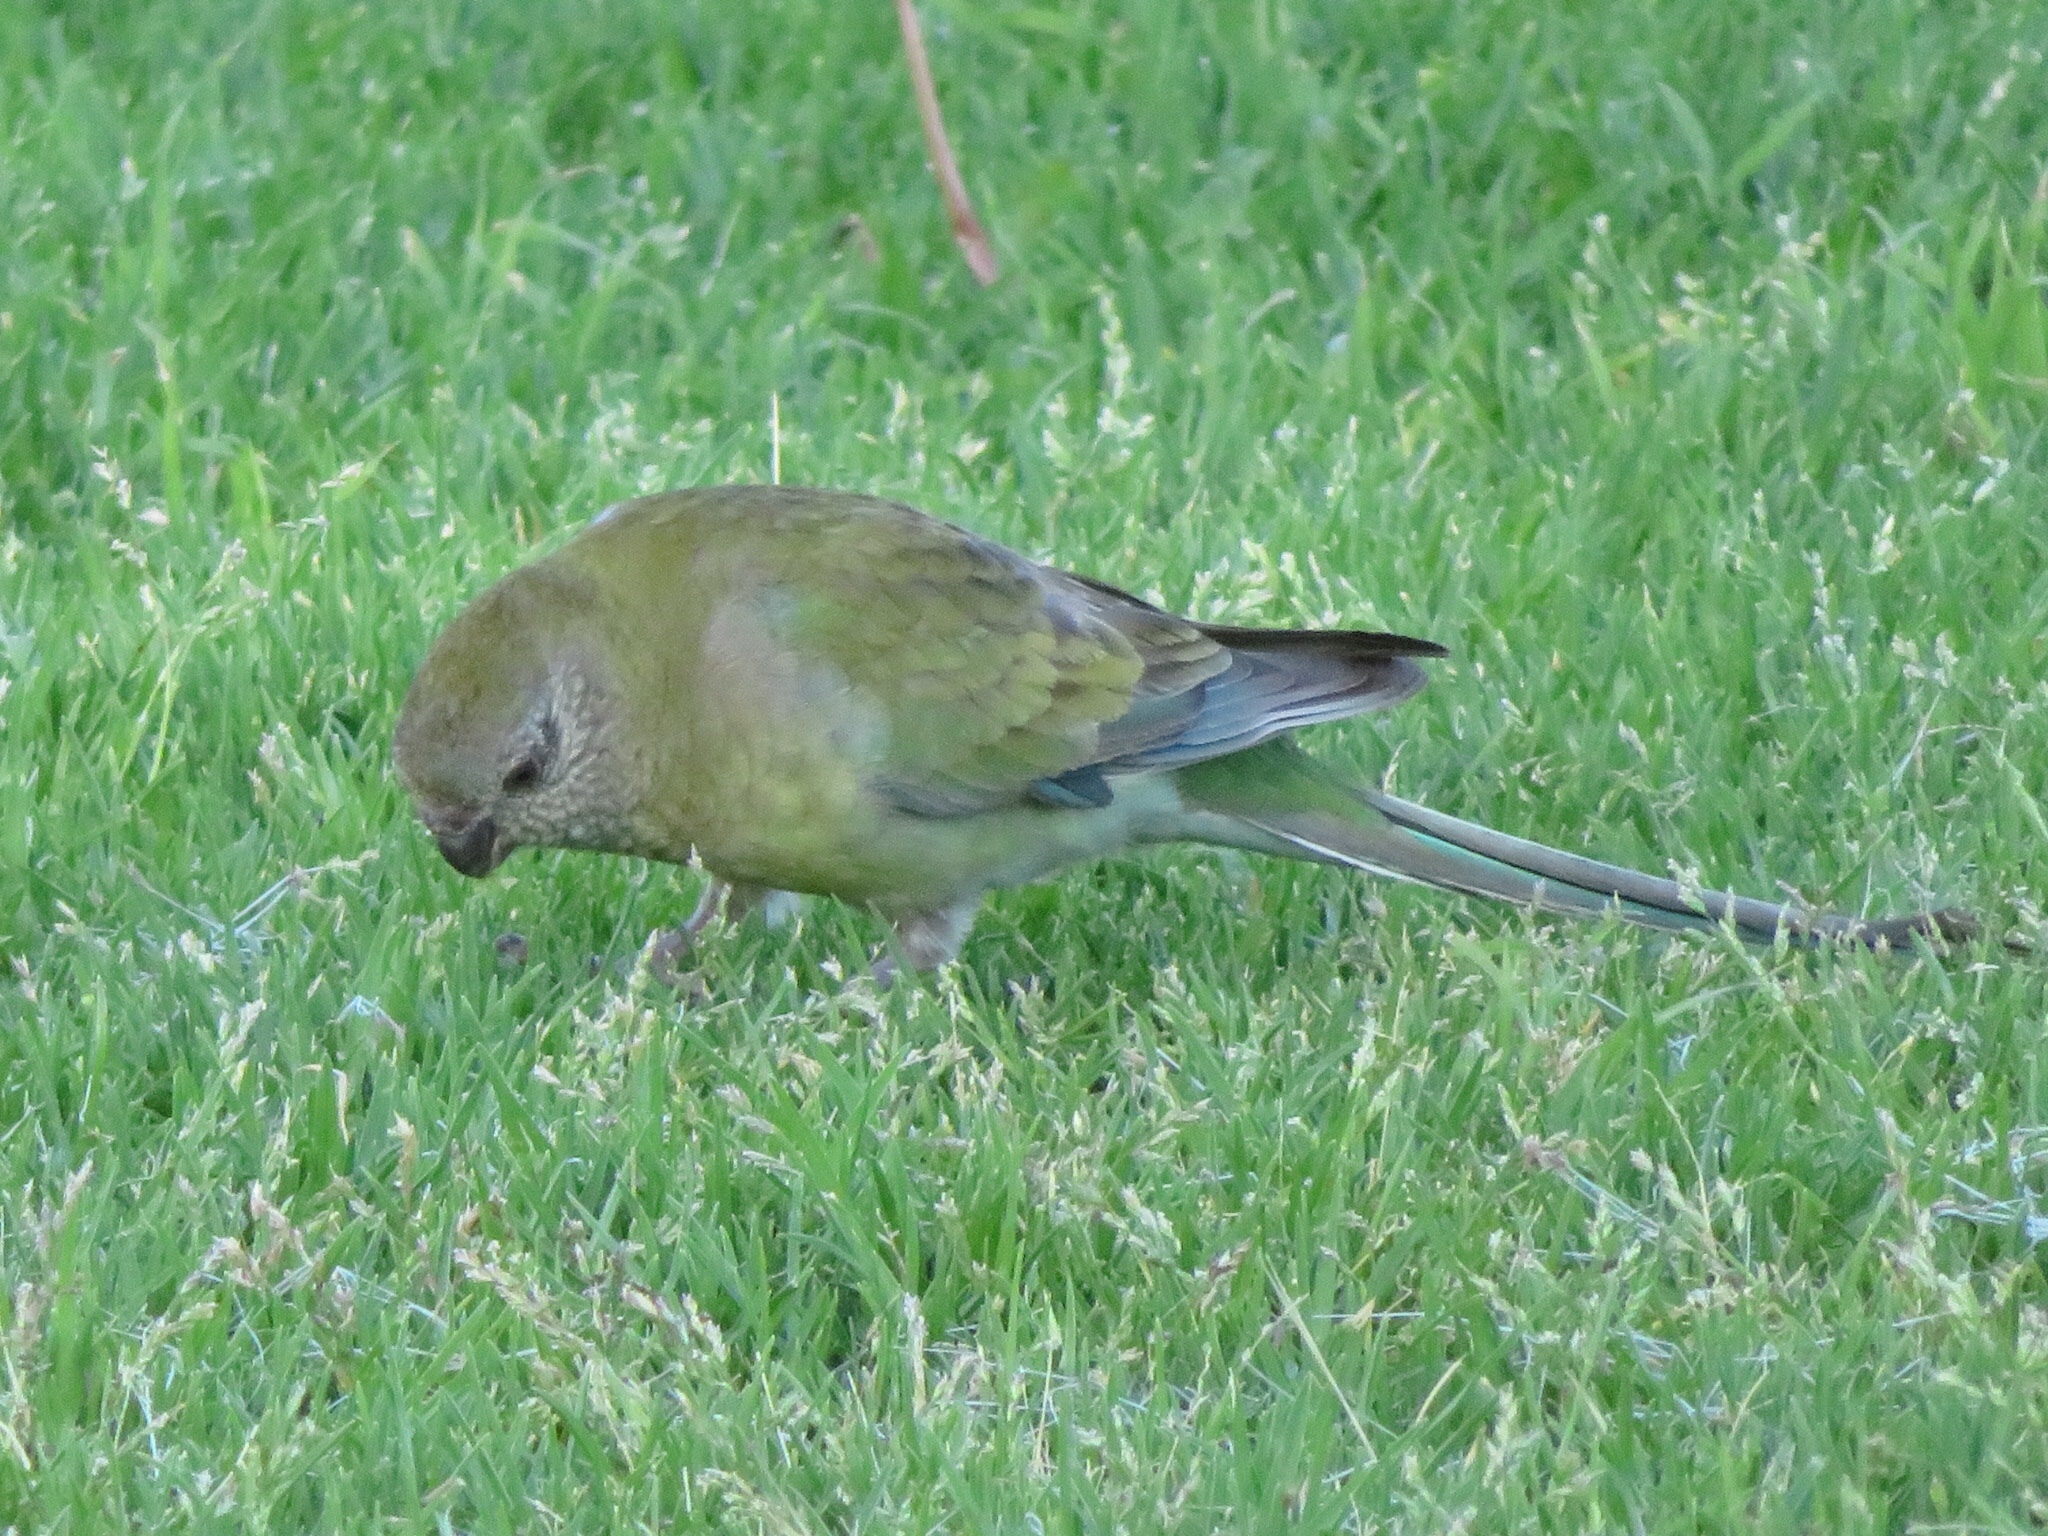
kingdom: Animalia
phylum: Chordata
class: Aves
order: Psittaciformes
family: Psittacidae
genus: Psephotus
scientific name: Psephotus haematonotus
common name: Red-rumped parrot
